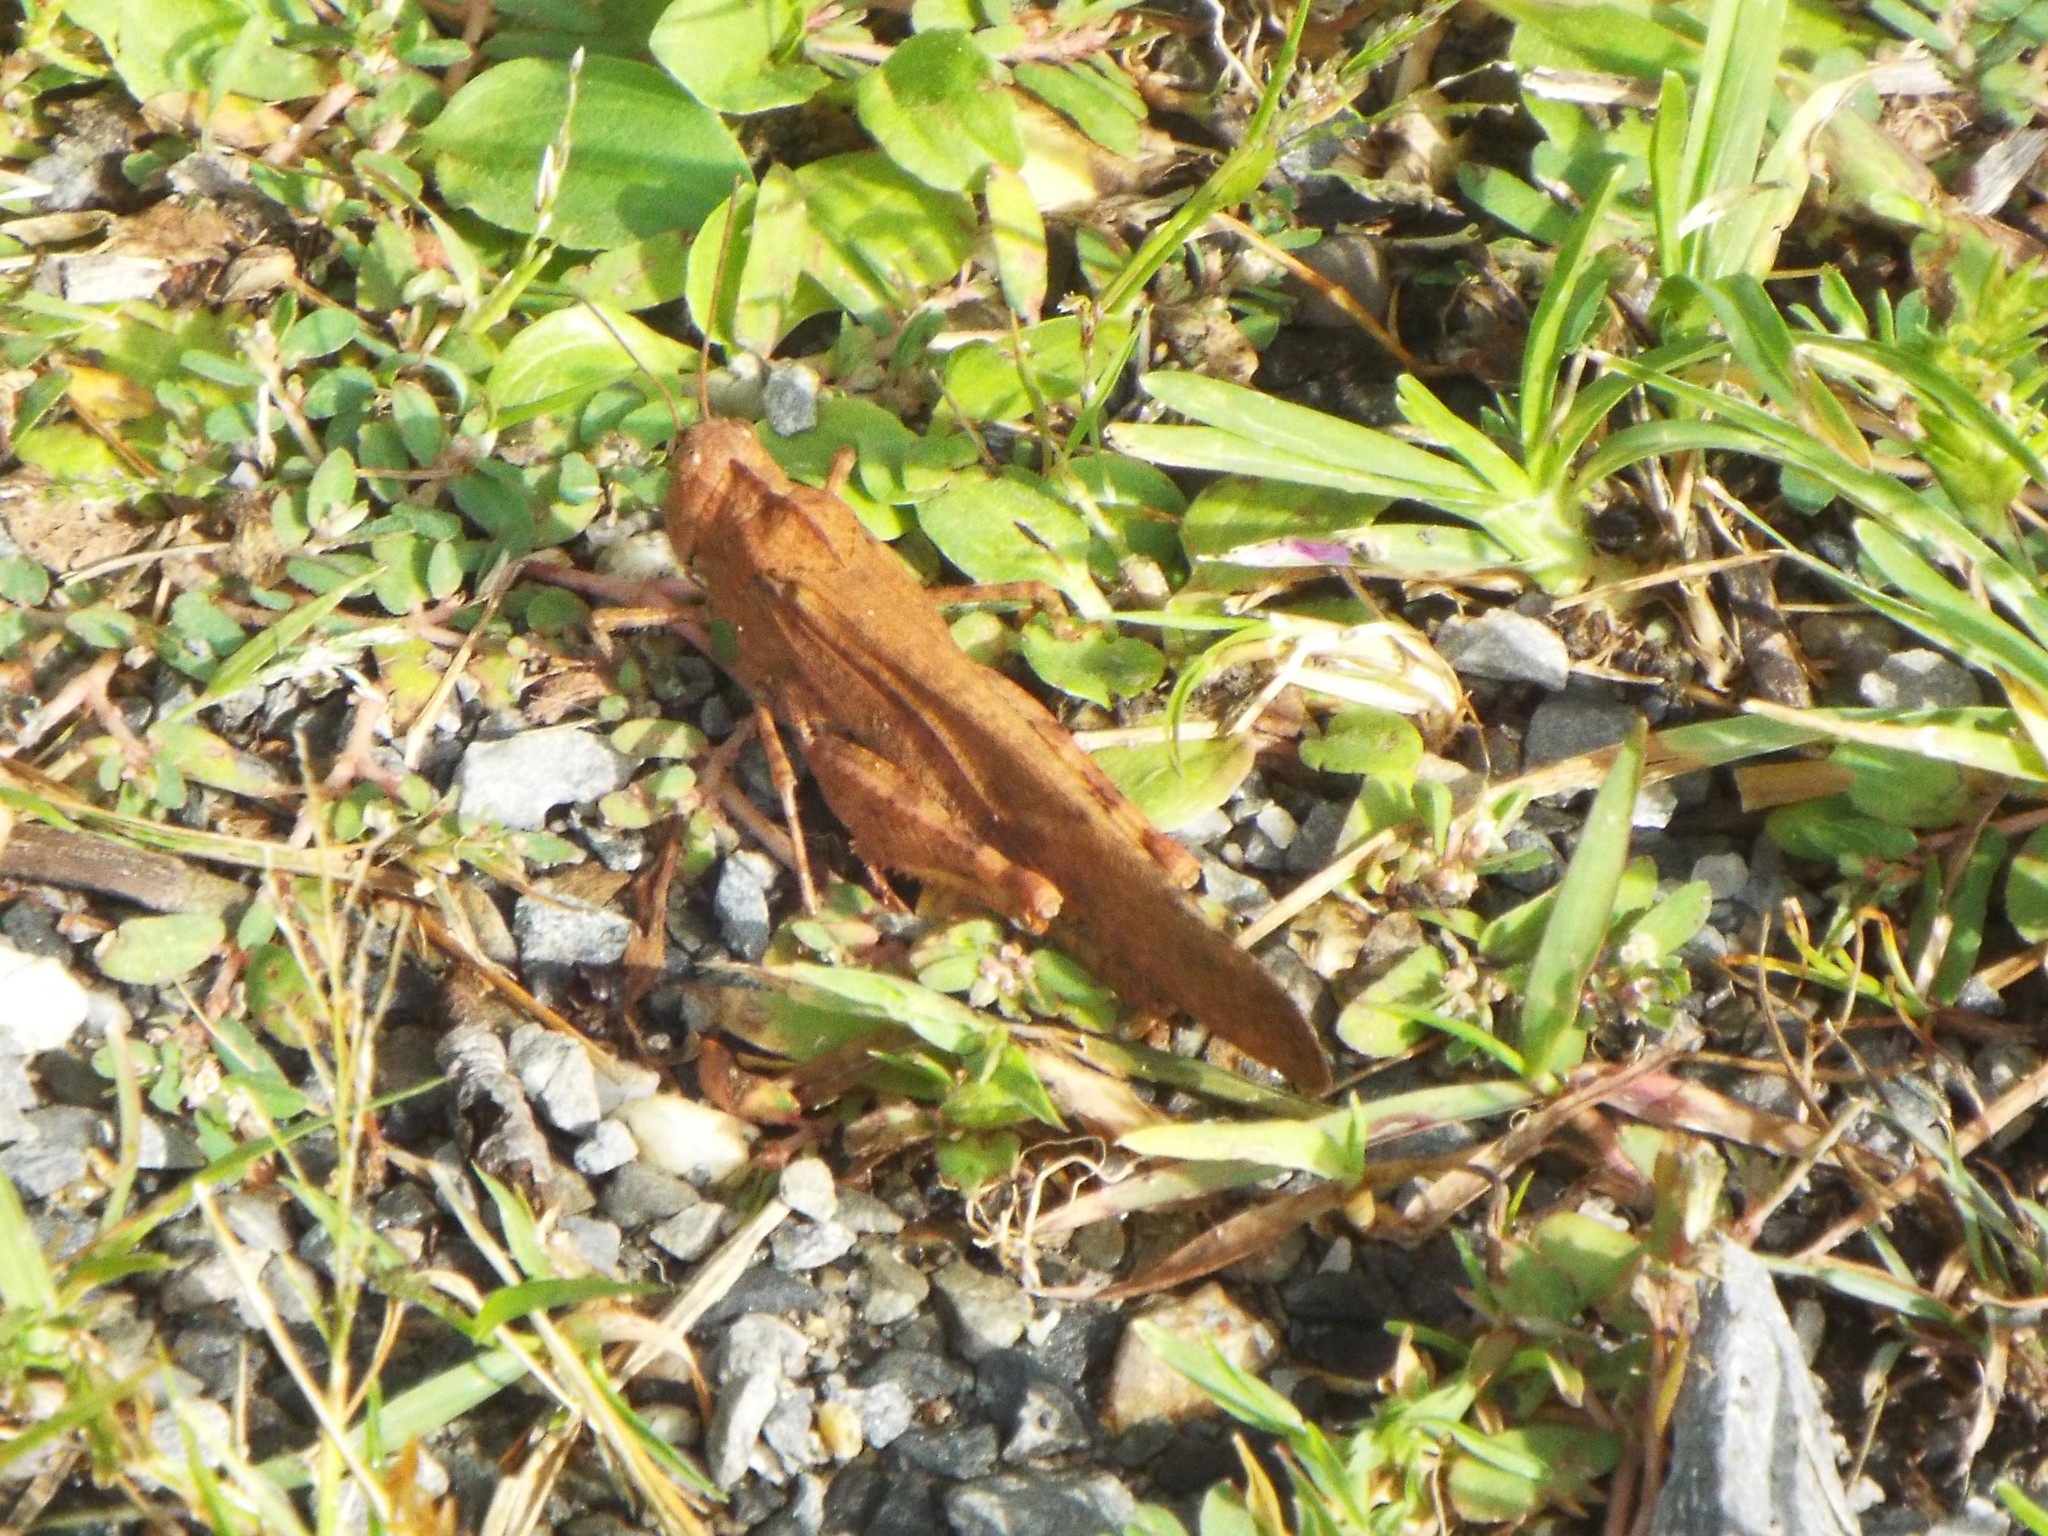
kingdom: Animalia
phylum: Arthropoda
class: Insecta
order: Orthoptera
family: Acrididae
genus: Dissosteira
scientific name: Dissosteira carolina
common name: Carolina grasshopper
